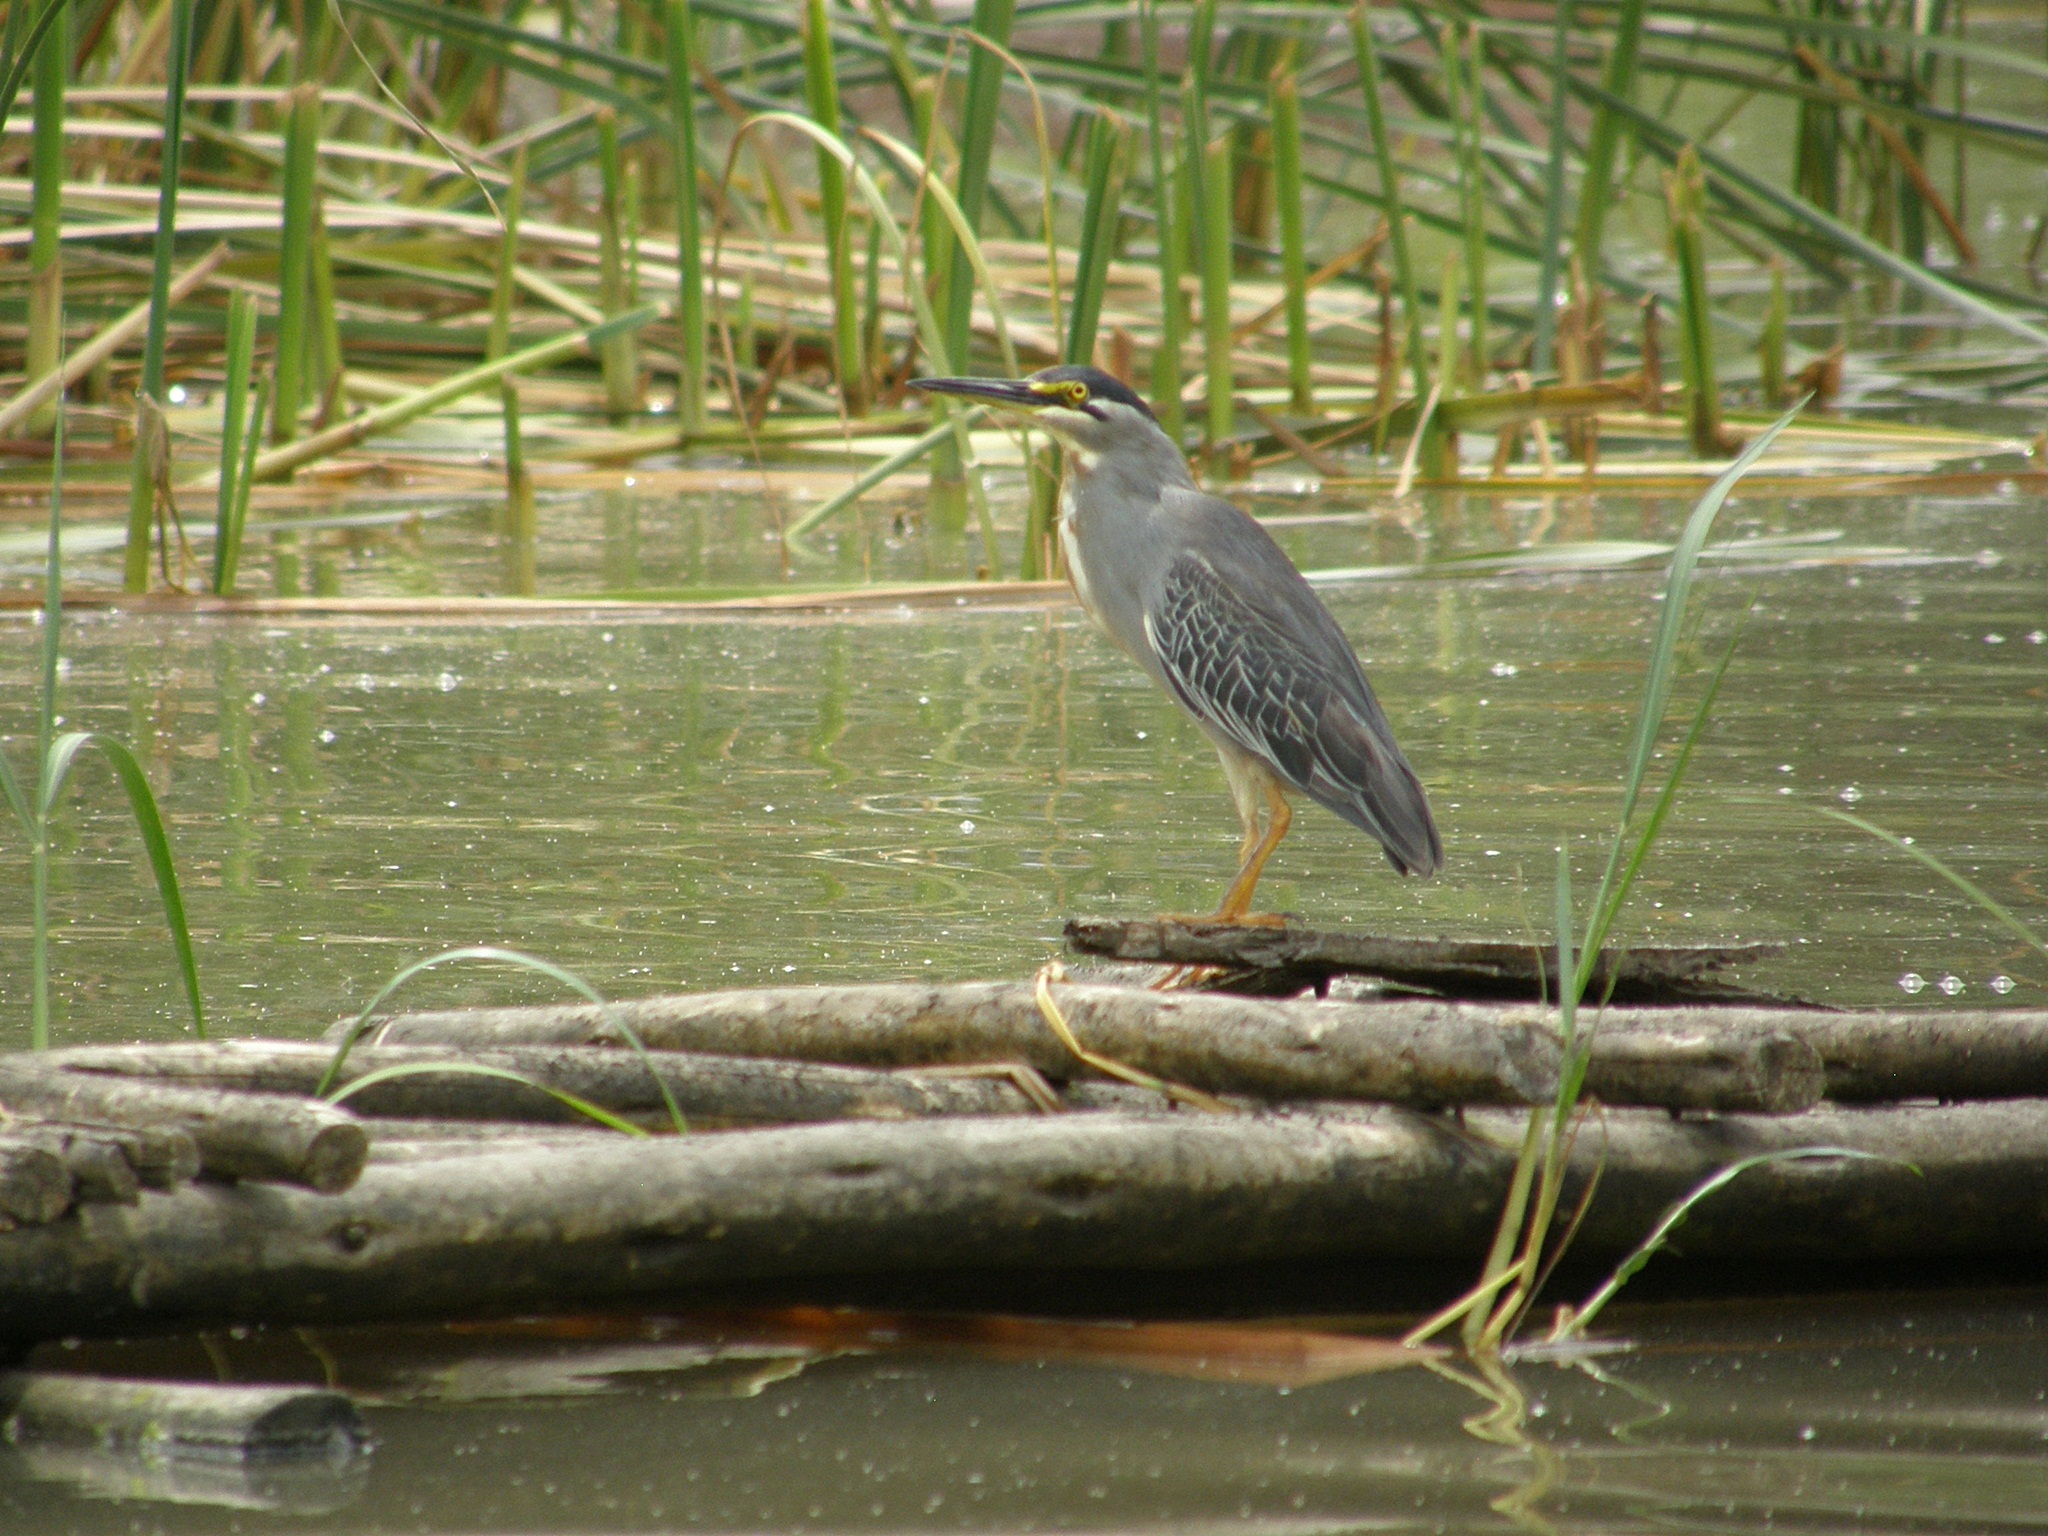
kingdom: Animalia
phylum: Chordata
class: Aves
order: Pelecaniformes
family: Ardeidae
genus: Butorides
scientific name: Butorides striata
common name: Striated heron
